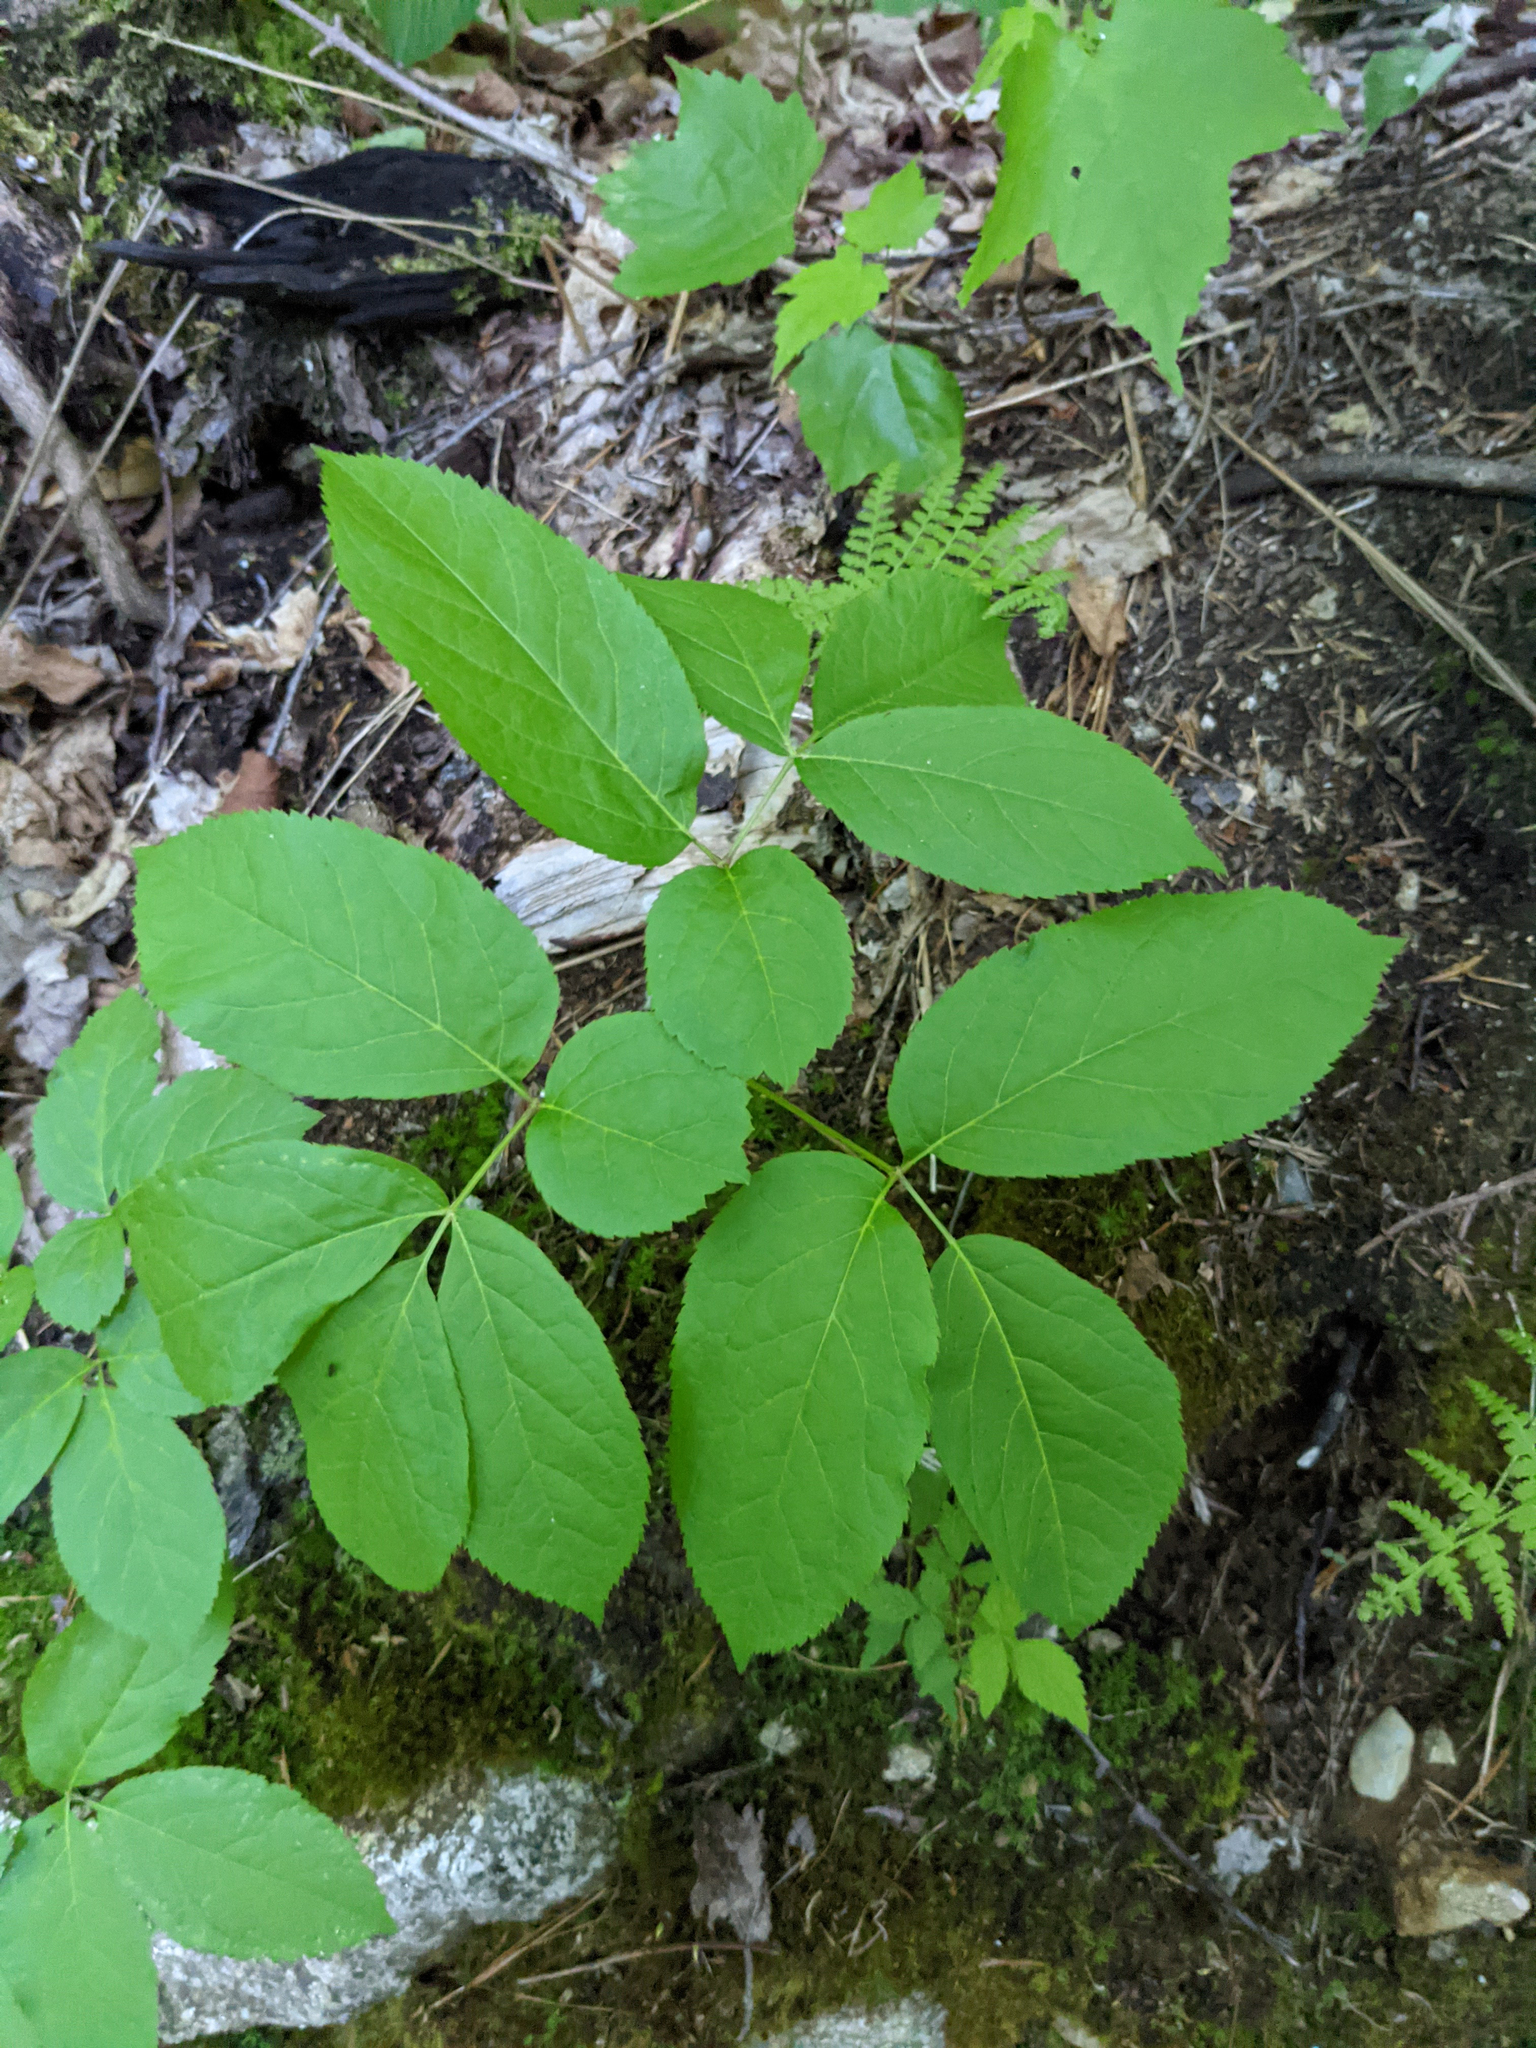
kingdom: Plantae
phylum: Tracheophyta
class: Magnoliopsida
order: Apiales
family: Araliaceae
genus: Aralia
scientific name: Aralia nudicaulis
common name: Wild sarsaparilla
